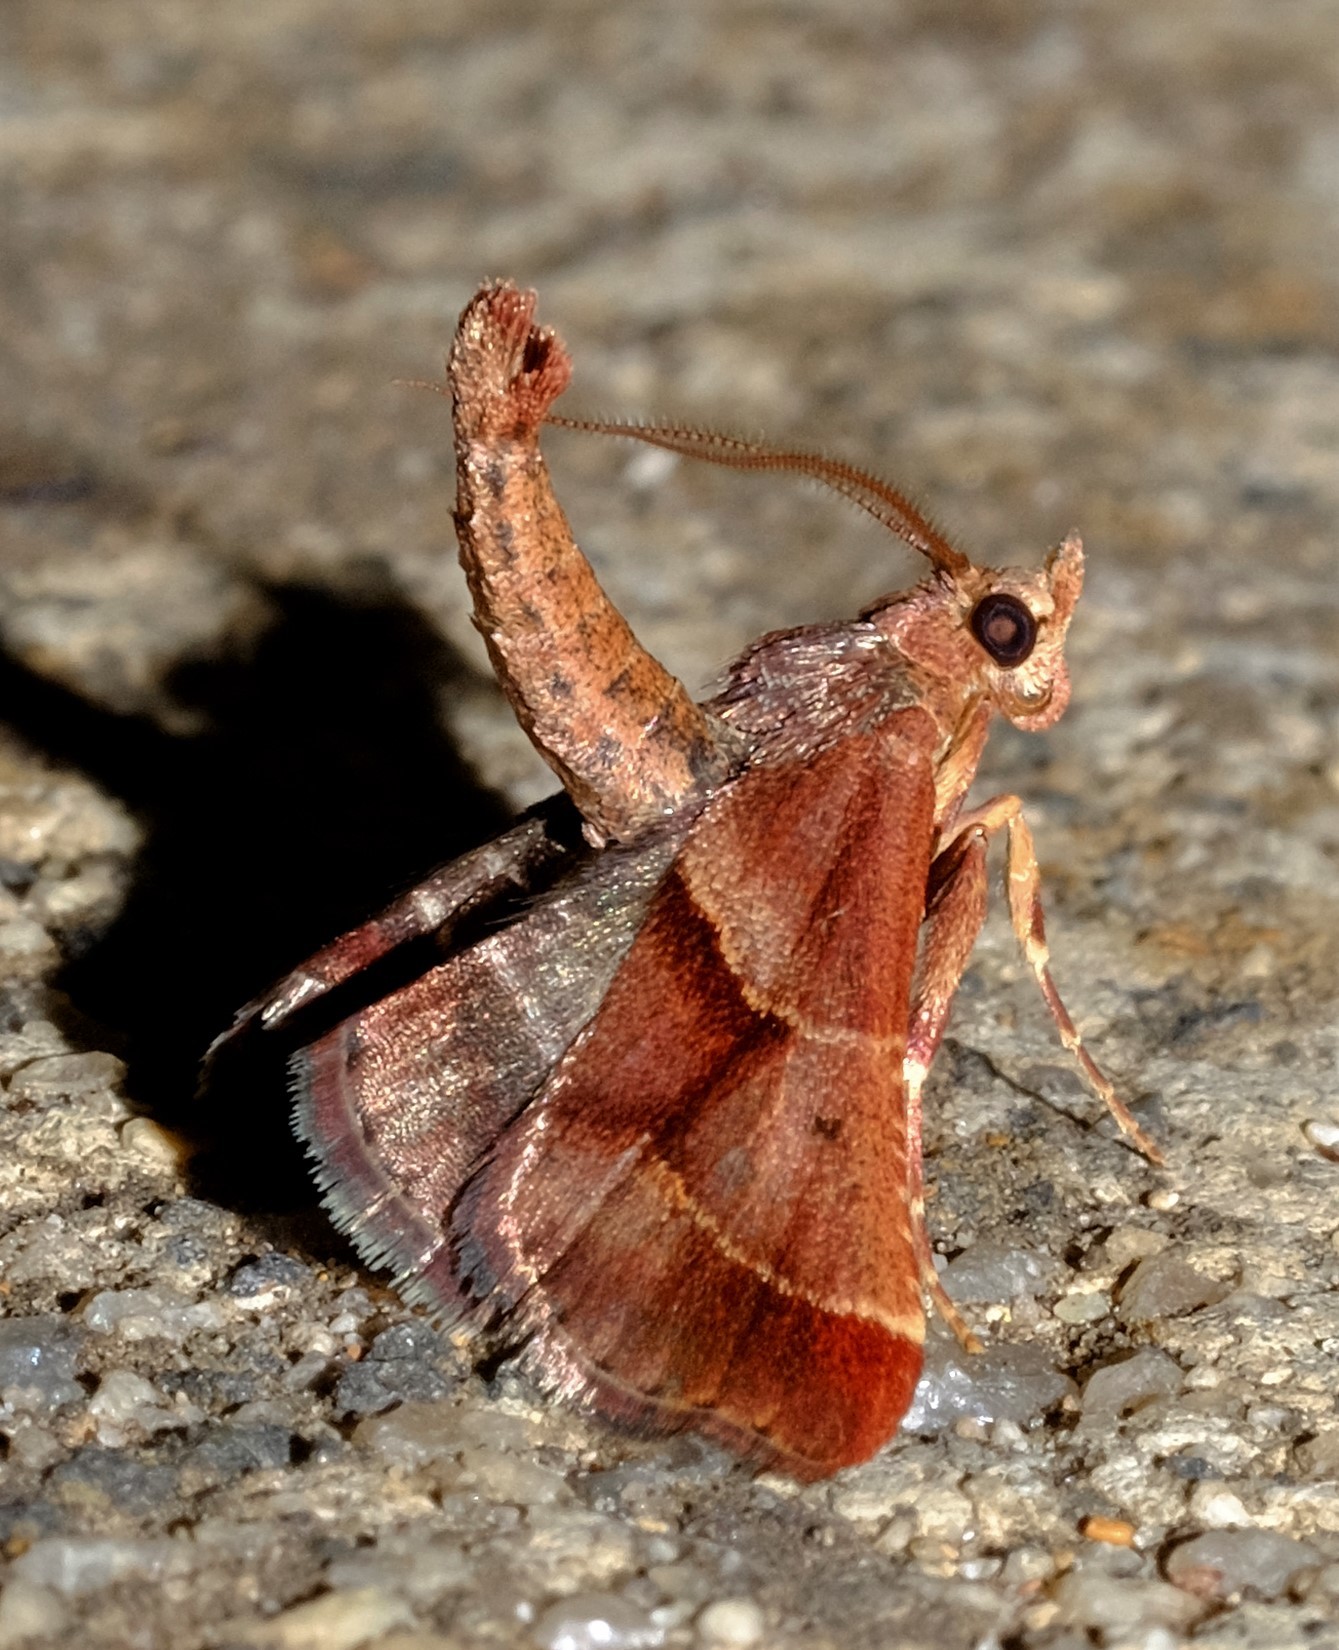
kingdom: Animalia
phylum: Arthropoda
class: Insecta
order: Lepidoptera
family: Pyralidae
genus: Gauna
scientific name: Gauna aegusalis
